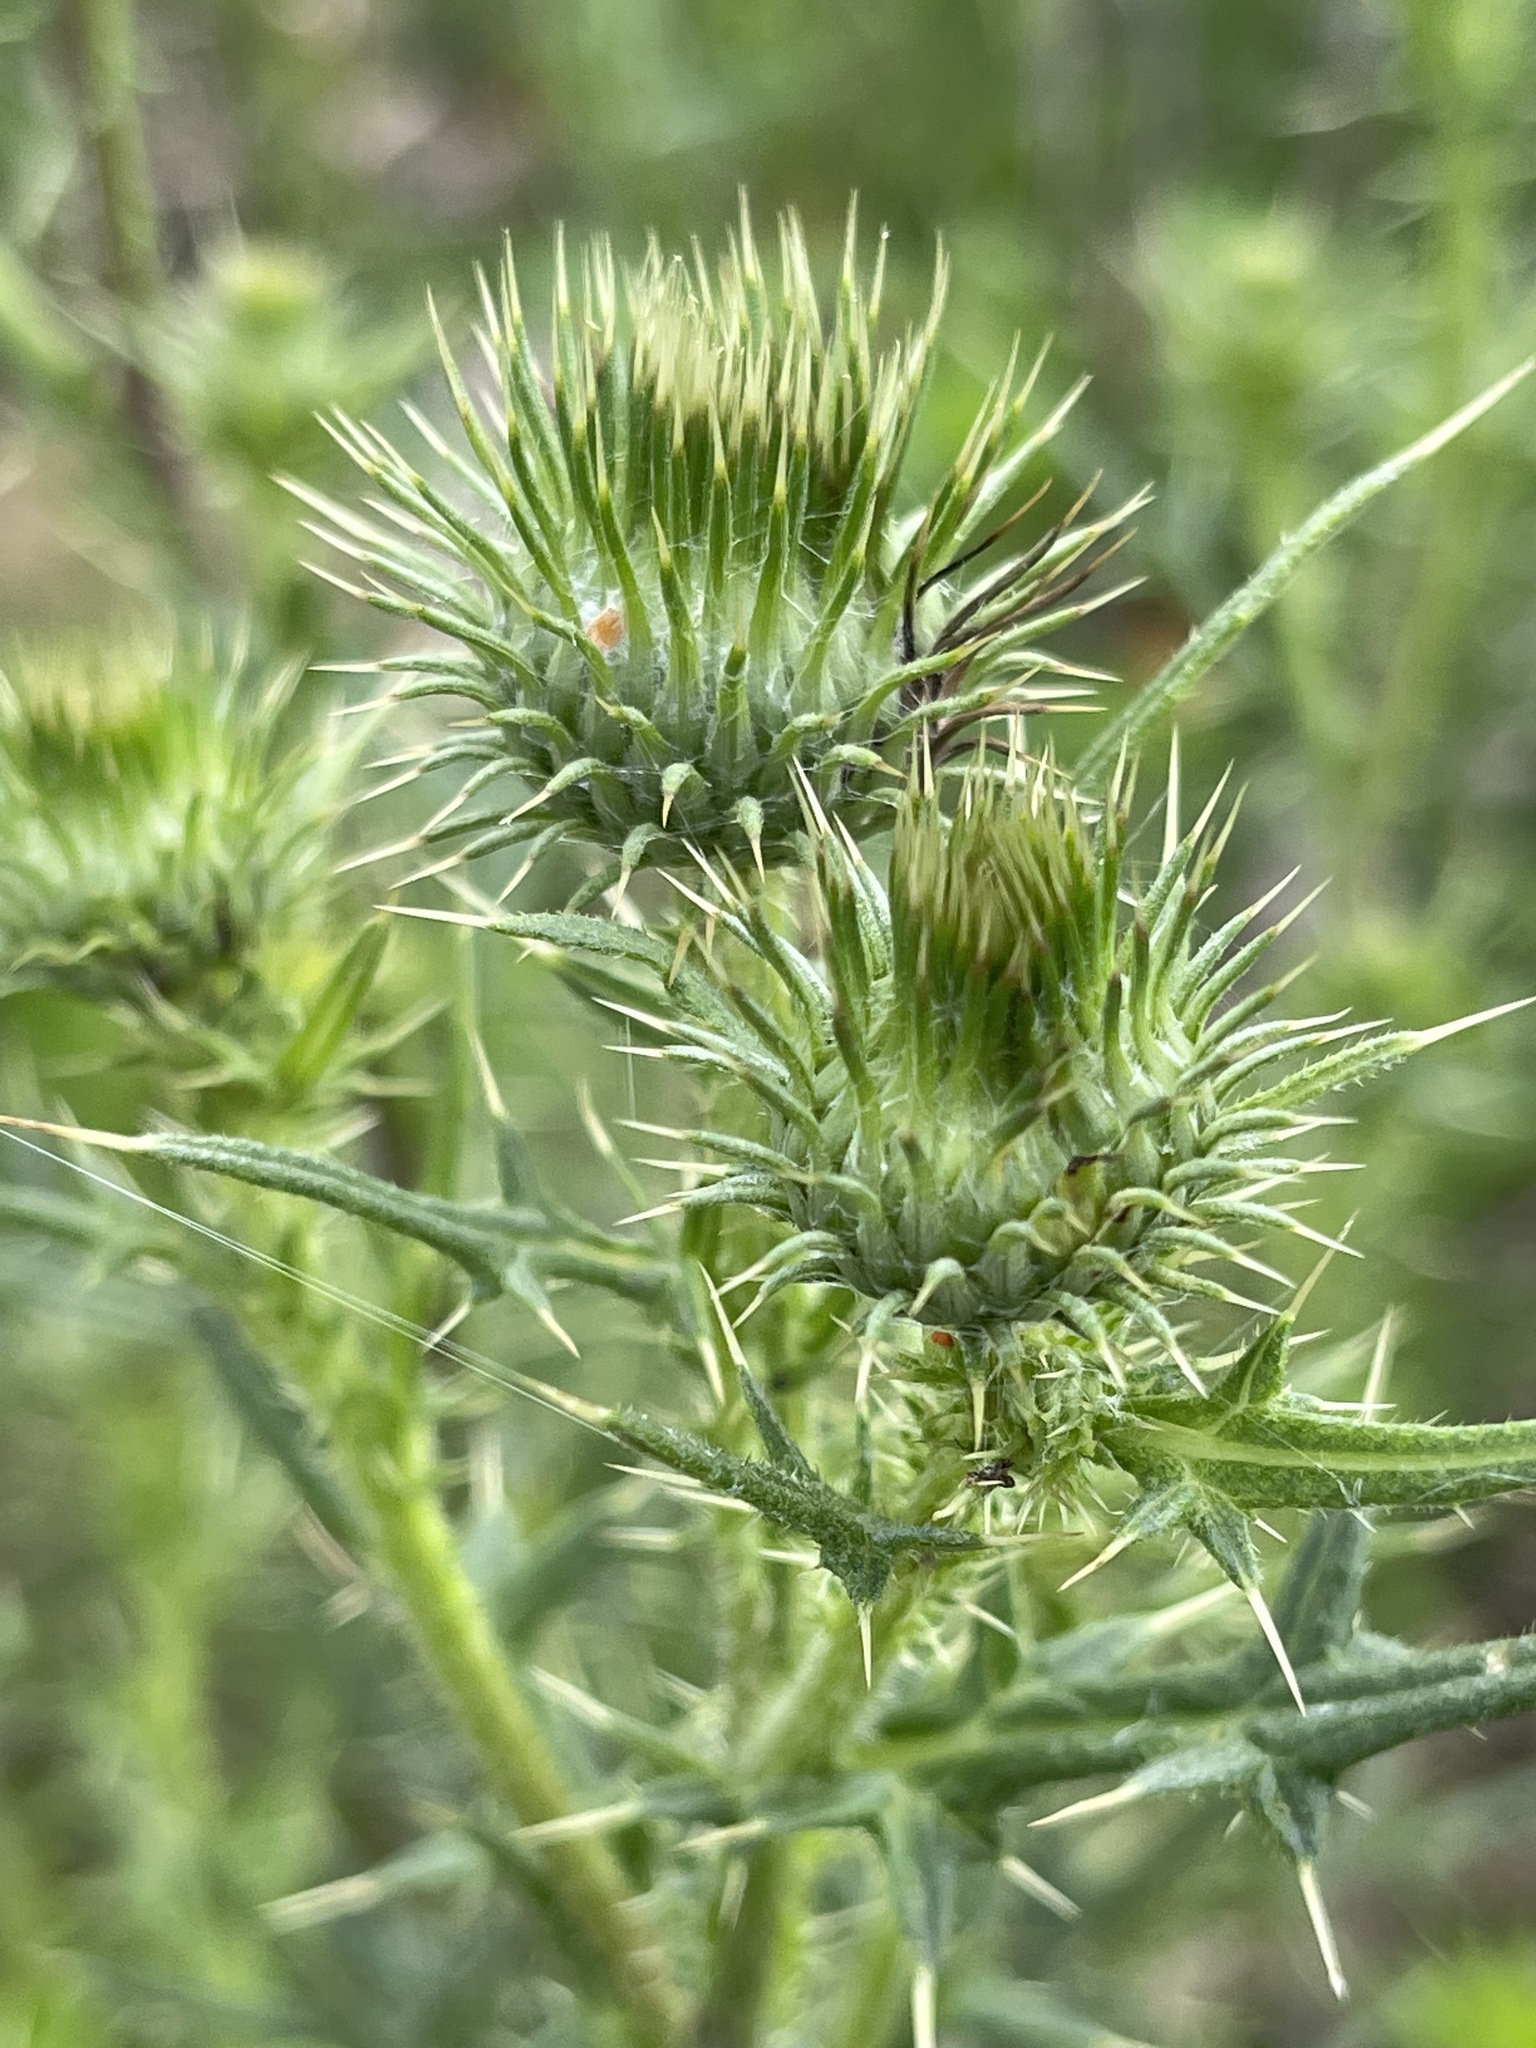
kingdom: Plantae
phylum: Tracheophyta
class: Magnoliopsida
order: Asterales
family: Asteraceae
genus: Cirsium
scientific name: Cirsium vulgare
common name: Bull thistle
